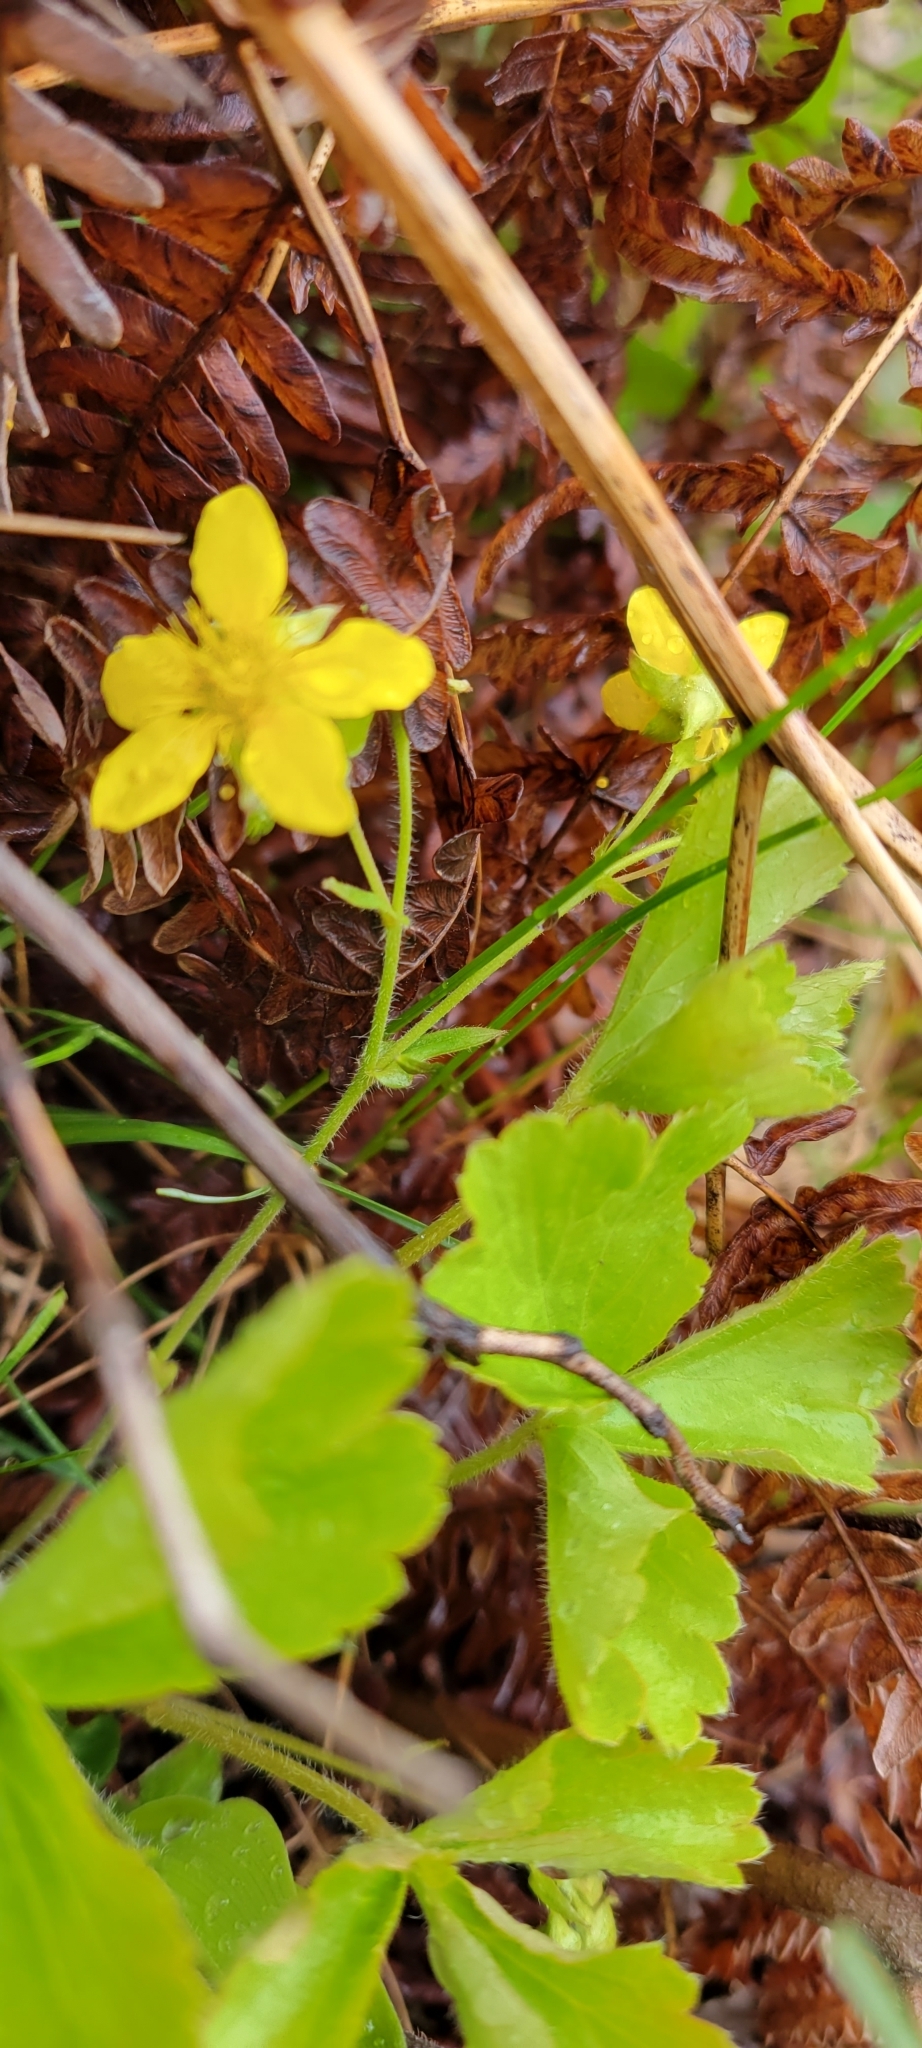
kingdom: Plantae
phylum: Tracheophyta
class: Magnoliopsida
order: Rosales
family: Rosaceae
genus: Geum
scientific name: Geum fragarioides
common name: Appalachian barren strawberry
